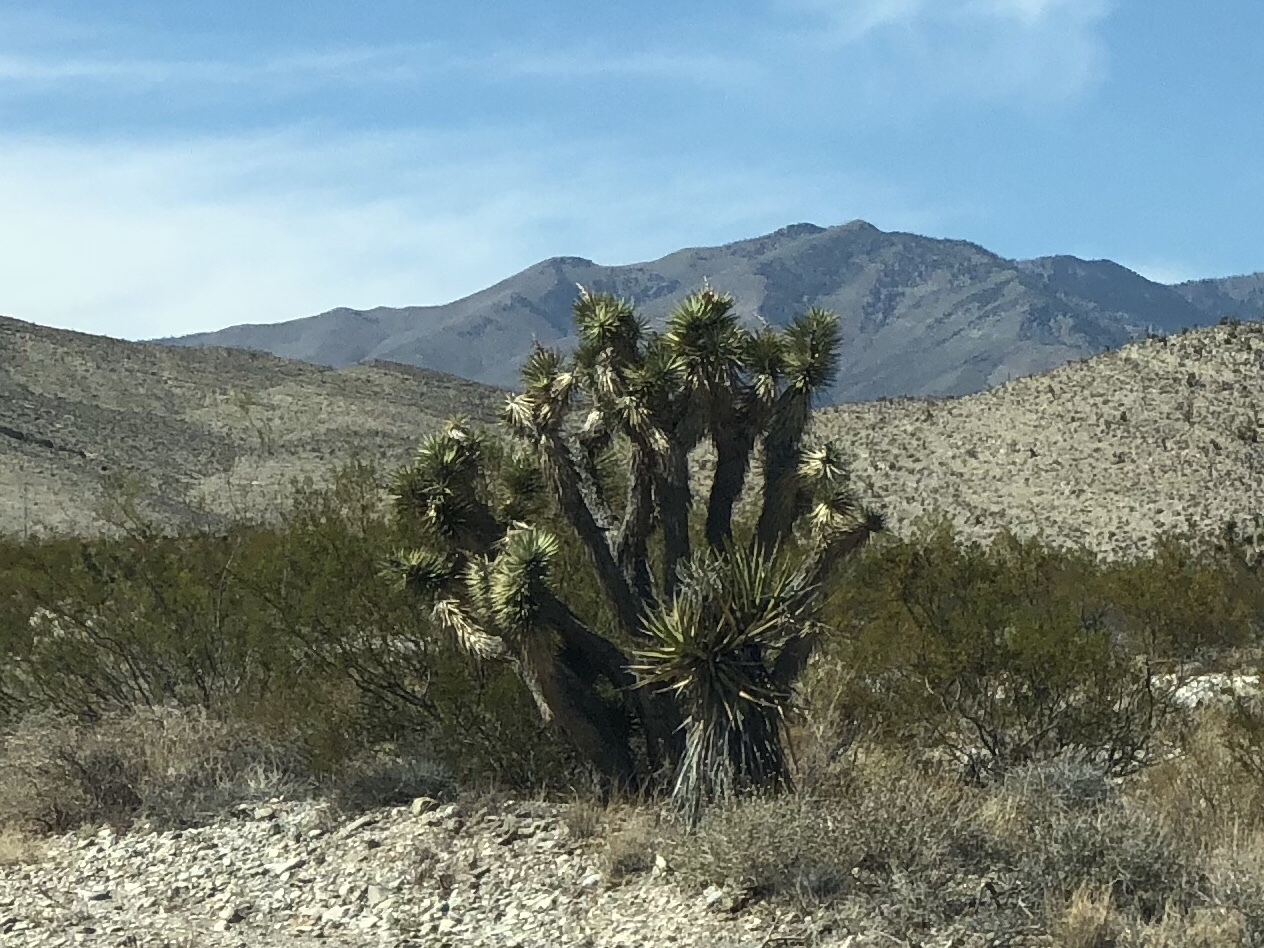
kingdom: Plantae
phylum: Tracheophyta
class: Liliopsida
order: Asparagales
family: Asparagaceae
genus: Yucca
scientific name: Yucca brevifolia
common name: Joshua tree
